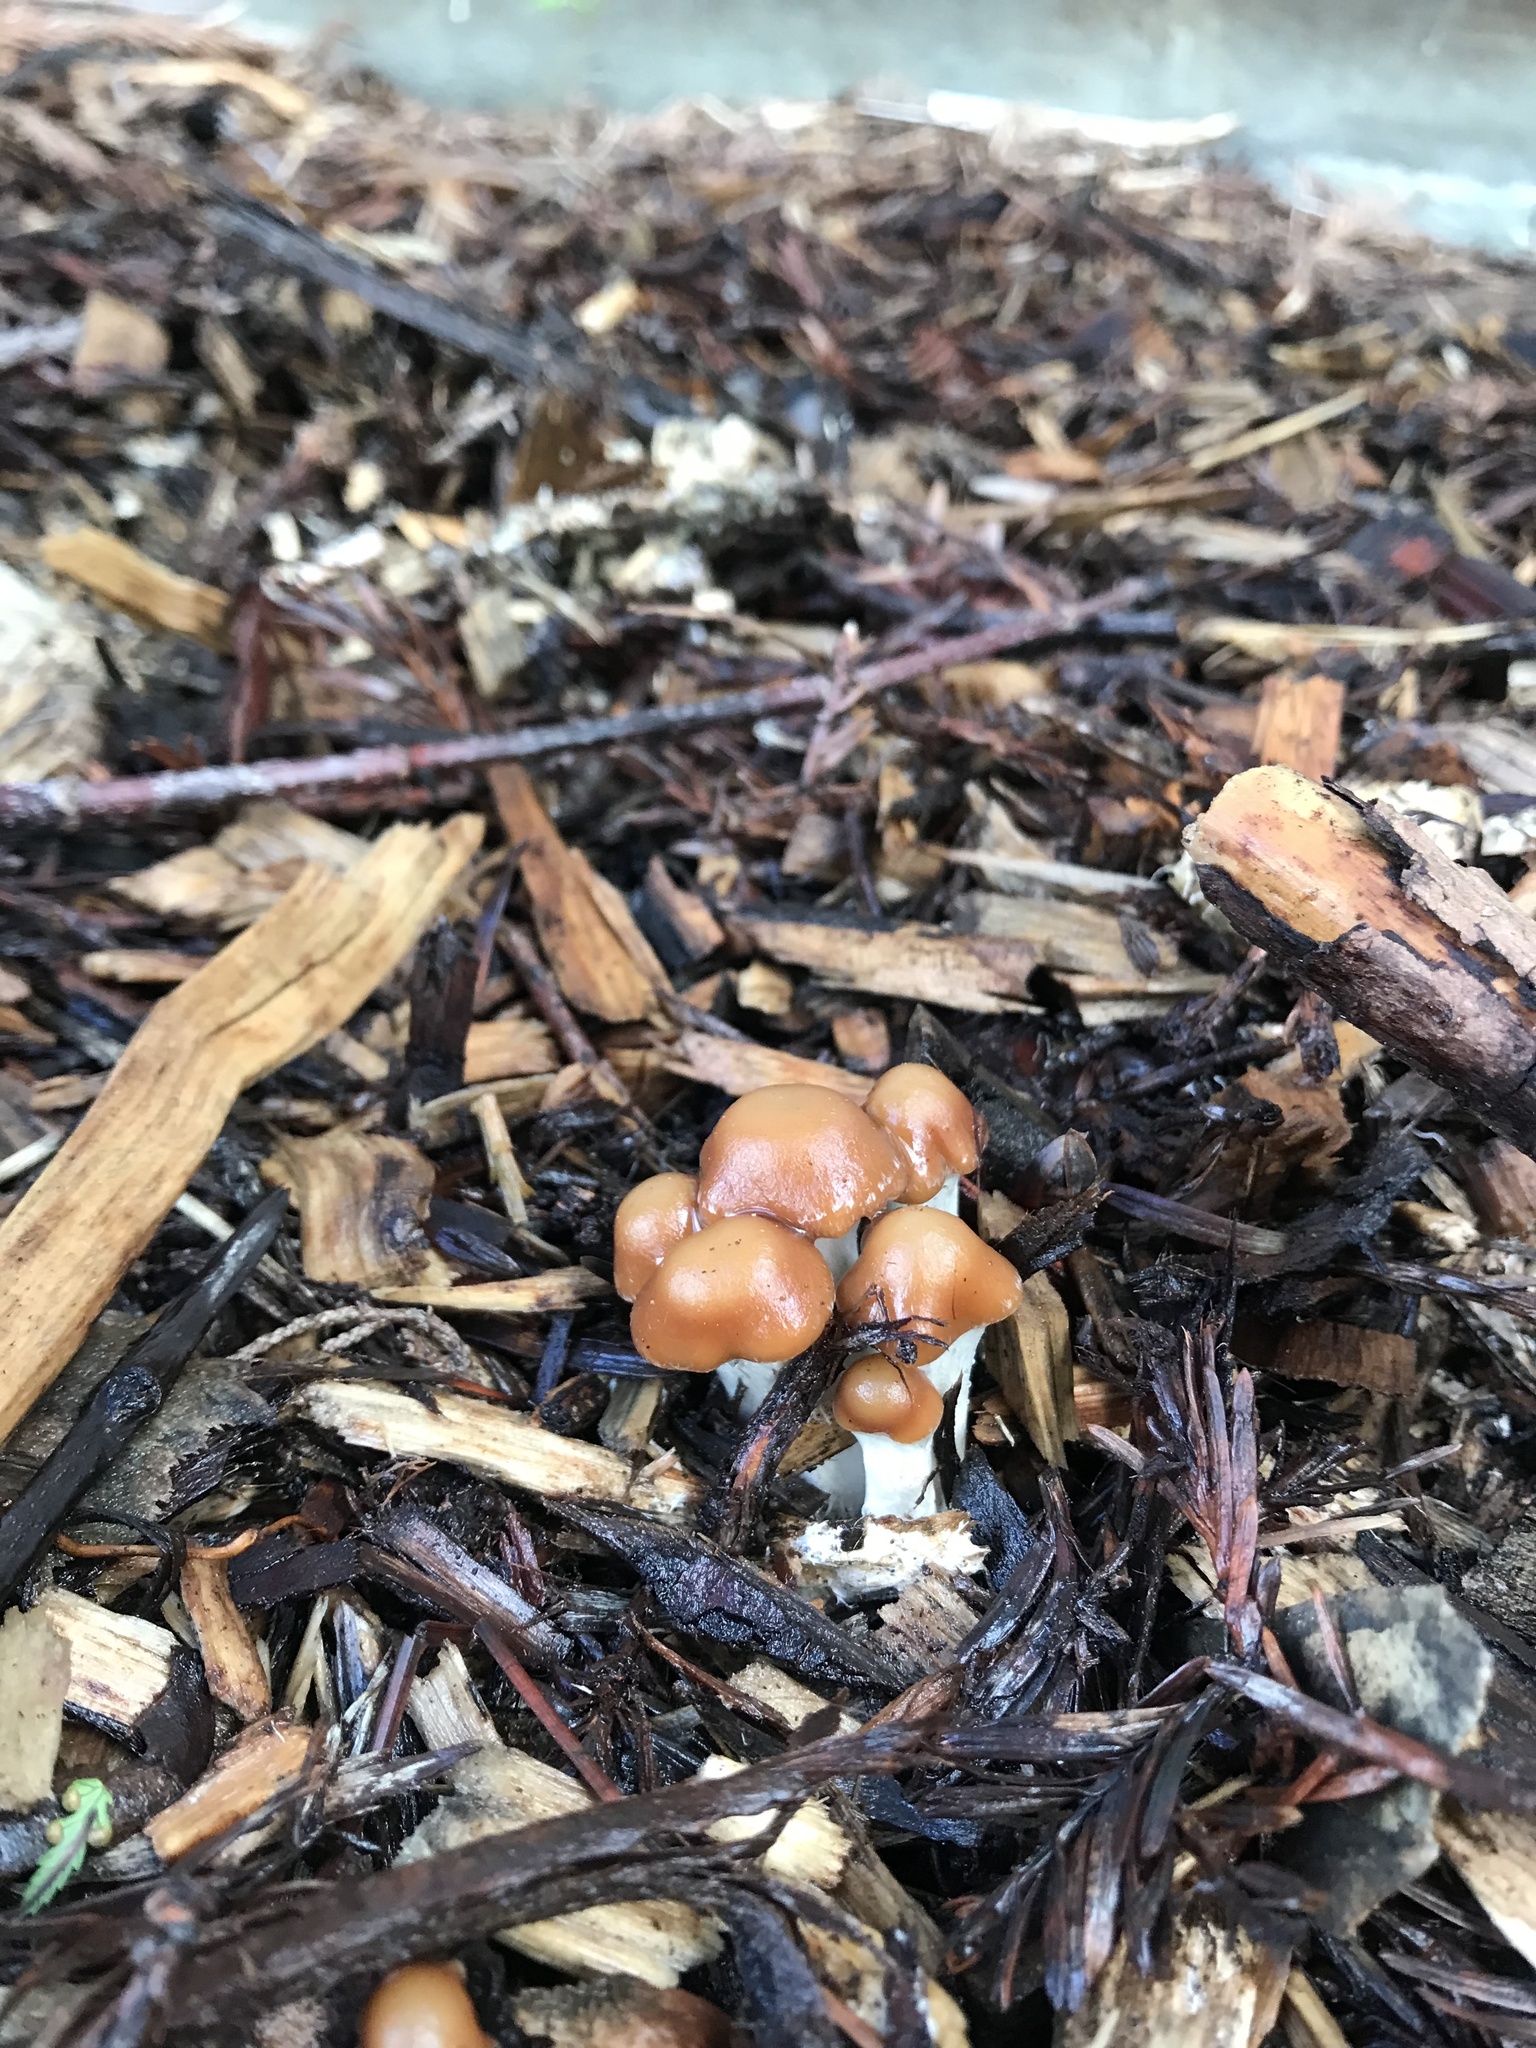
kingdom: Fungi
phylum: Basidiomycota
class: Agaricomycetes
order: Agaricales
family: Hymenogastraceae
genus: Psilocybe
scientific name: Psilocybe cyanescens
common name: Blueleg brownie
